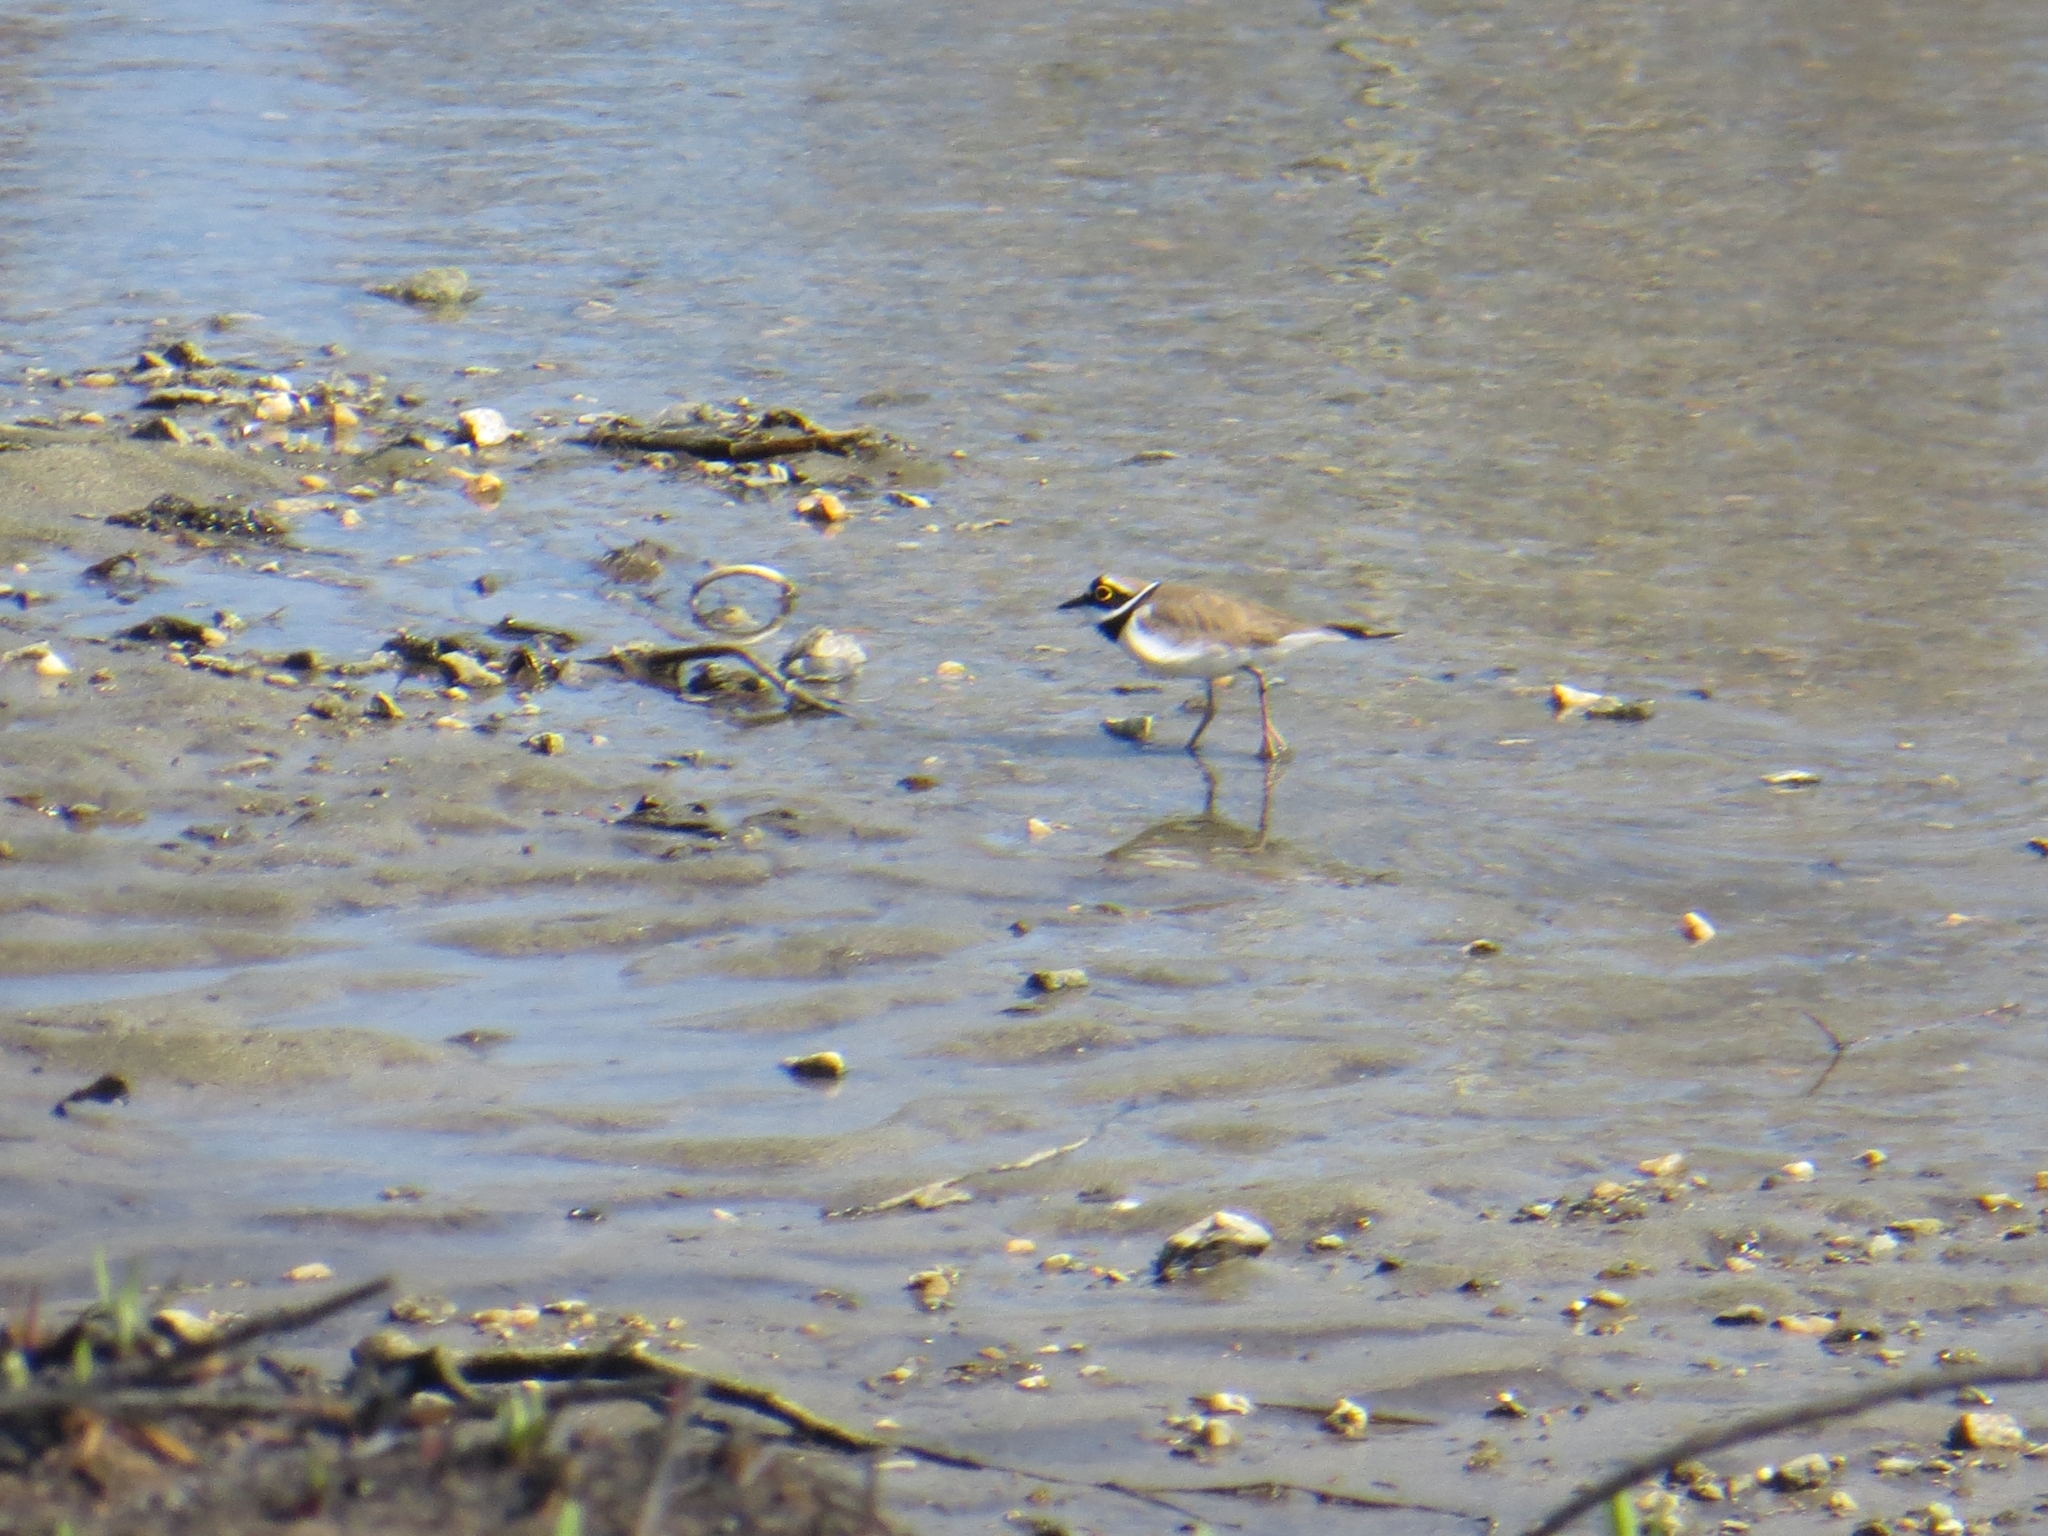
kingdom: Animalia
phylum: Chordata
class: Aves
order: Charadriiformes
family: Charadriidae
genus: Charadrius
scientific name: Charadrius dubius
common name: Little ringed plover
